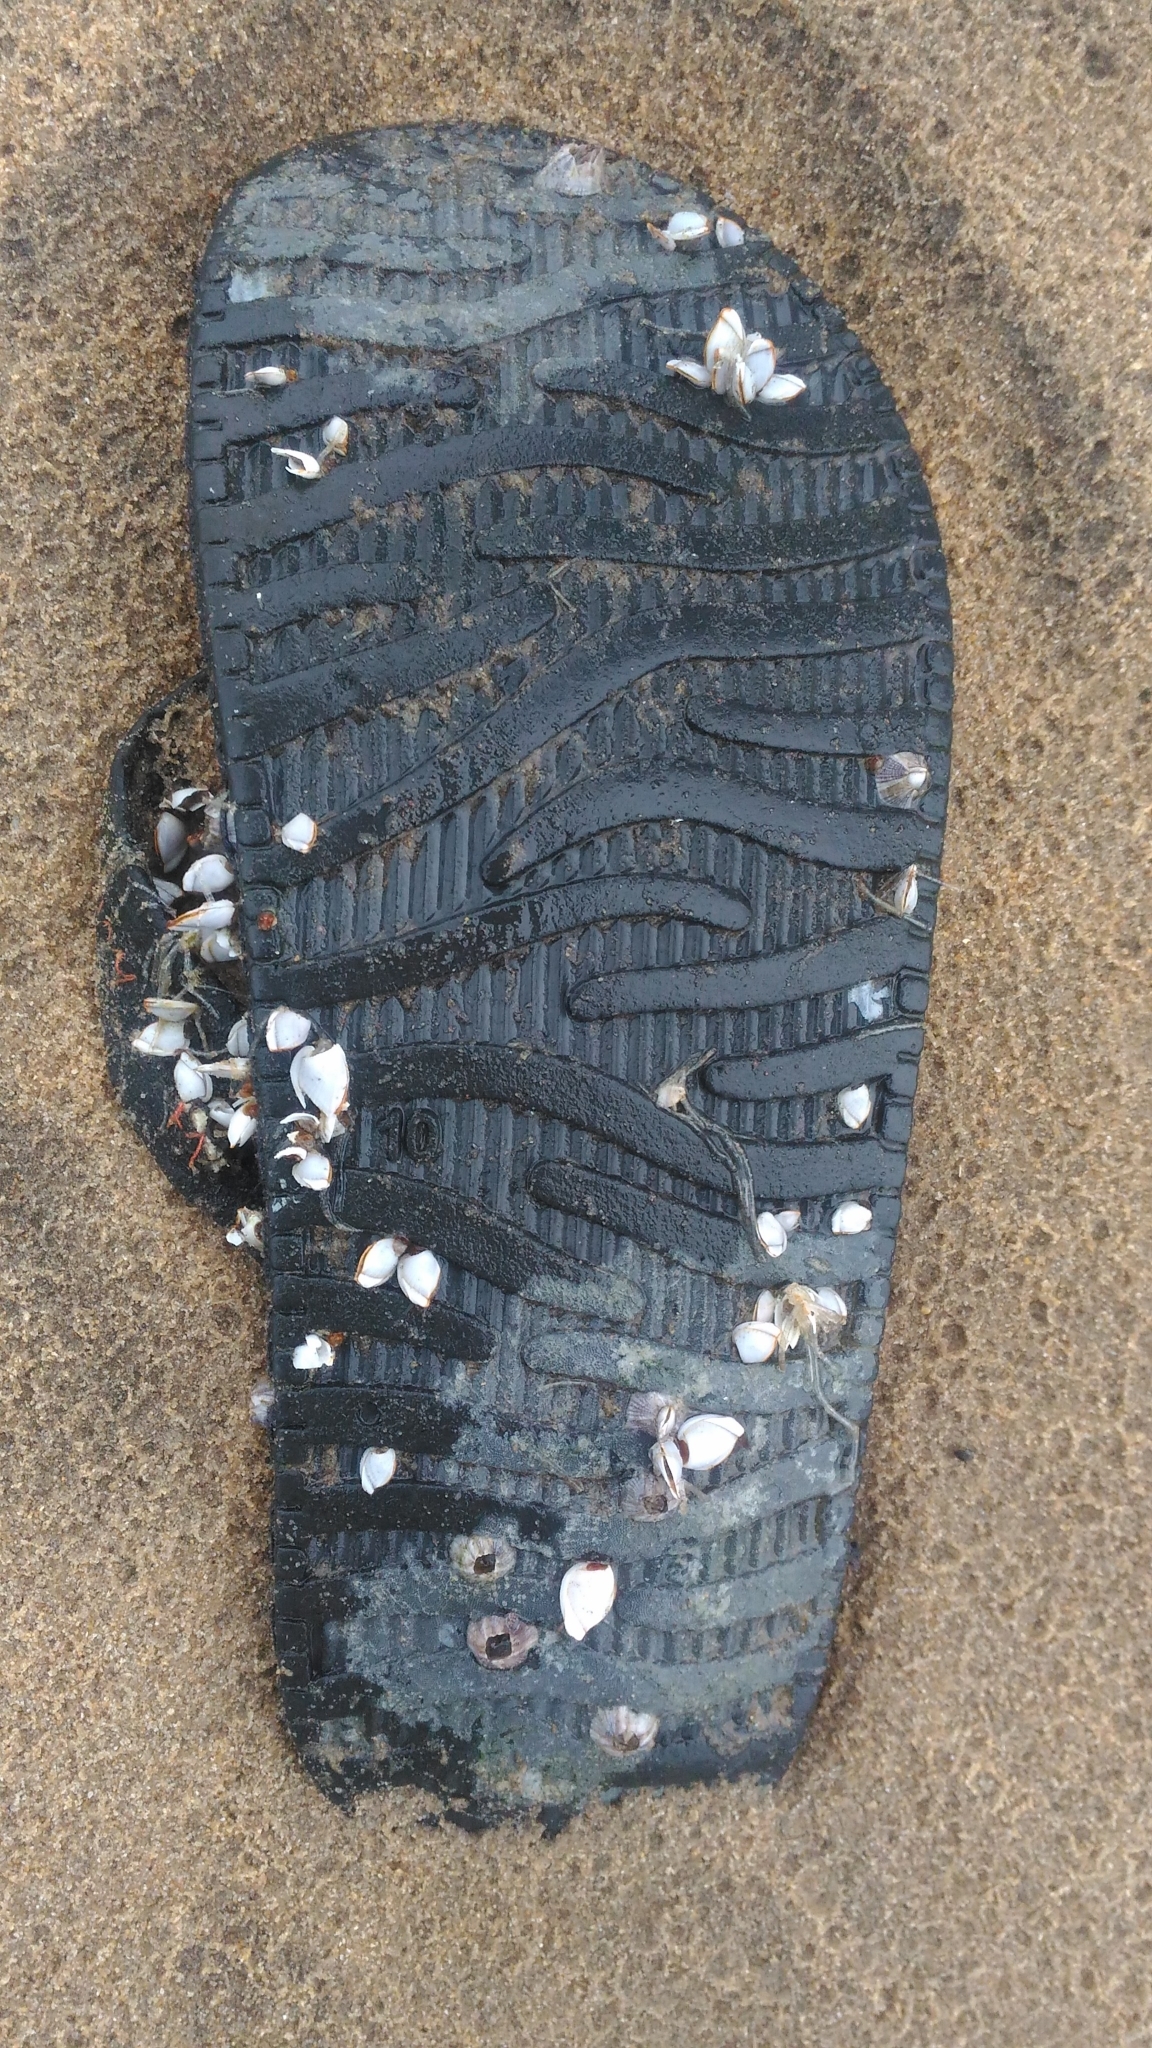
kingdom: Animalia
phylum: Arthropoda
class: Maxillopoda
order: Pedunculata
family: Lepadidae
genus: Lepas
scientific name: Lepas anserifera
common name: Goose barnacle
